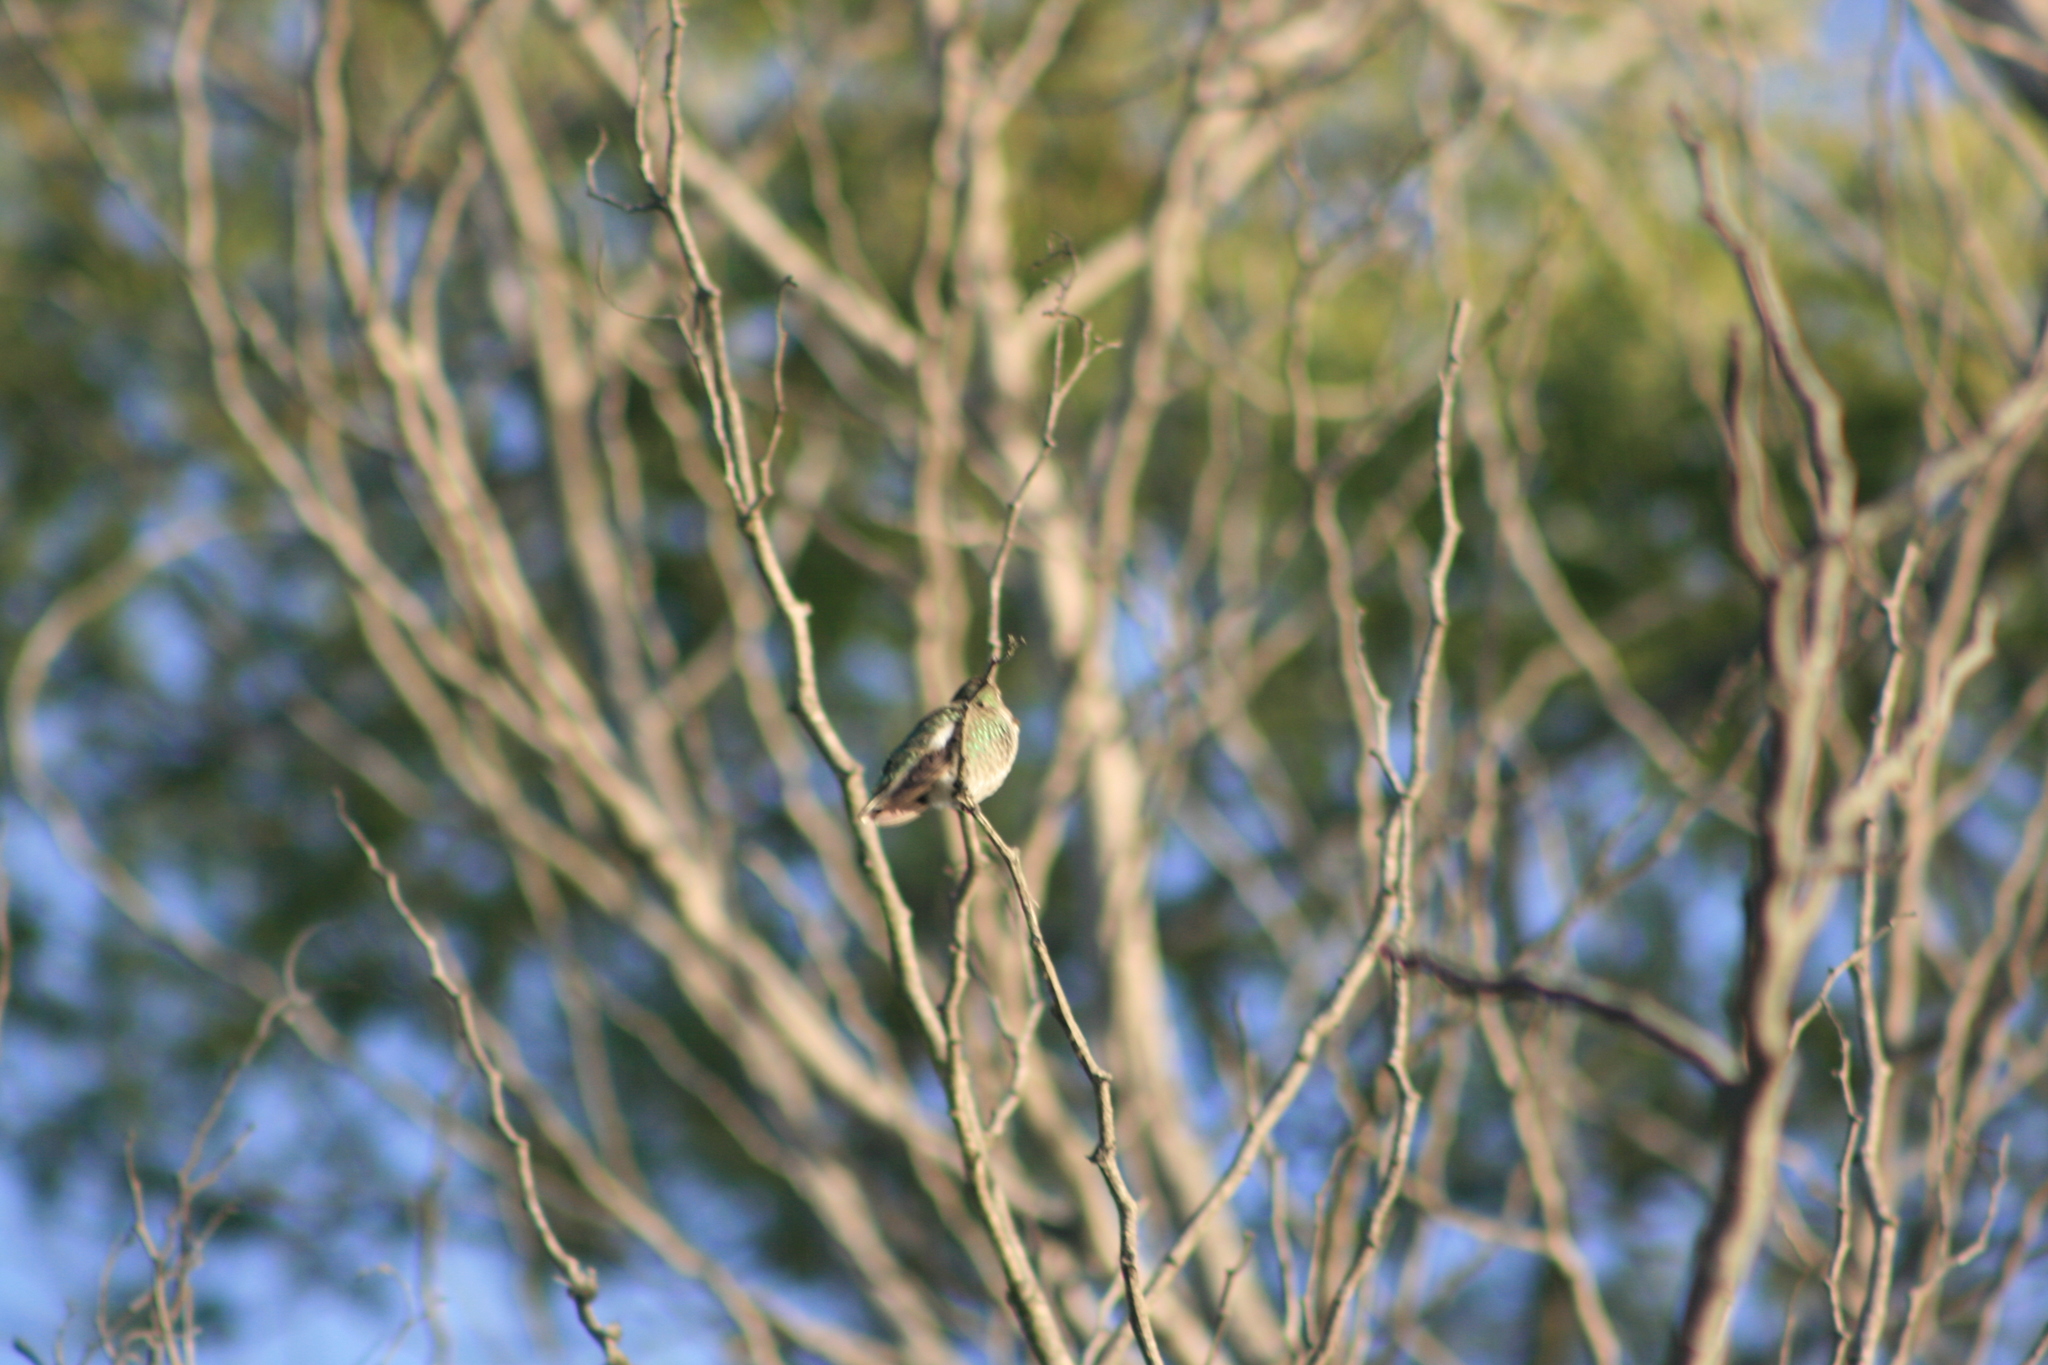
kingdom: Animalia
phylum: Chordata
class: Aves
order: Apodiformes
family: Trochilidae
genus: Calypte
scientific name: Calypte anna
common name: Anna's hummingbird
